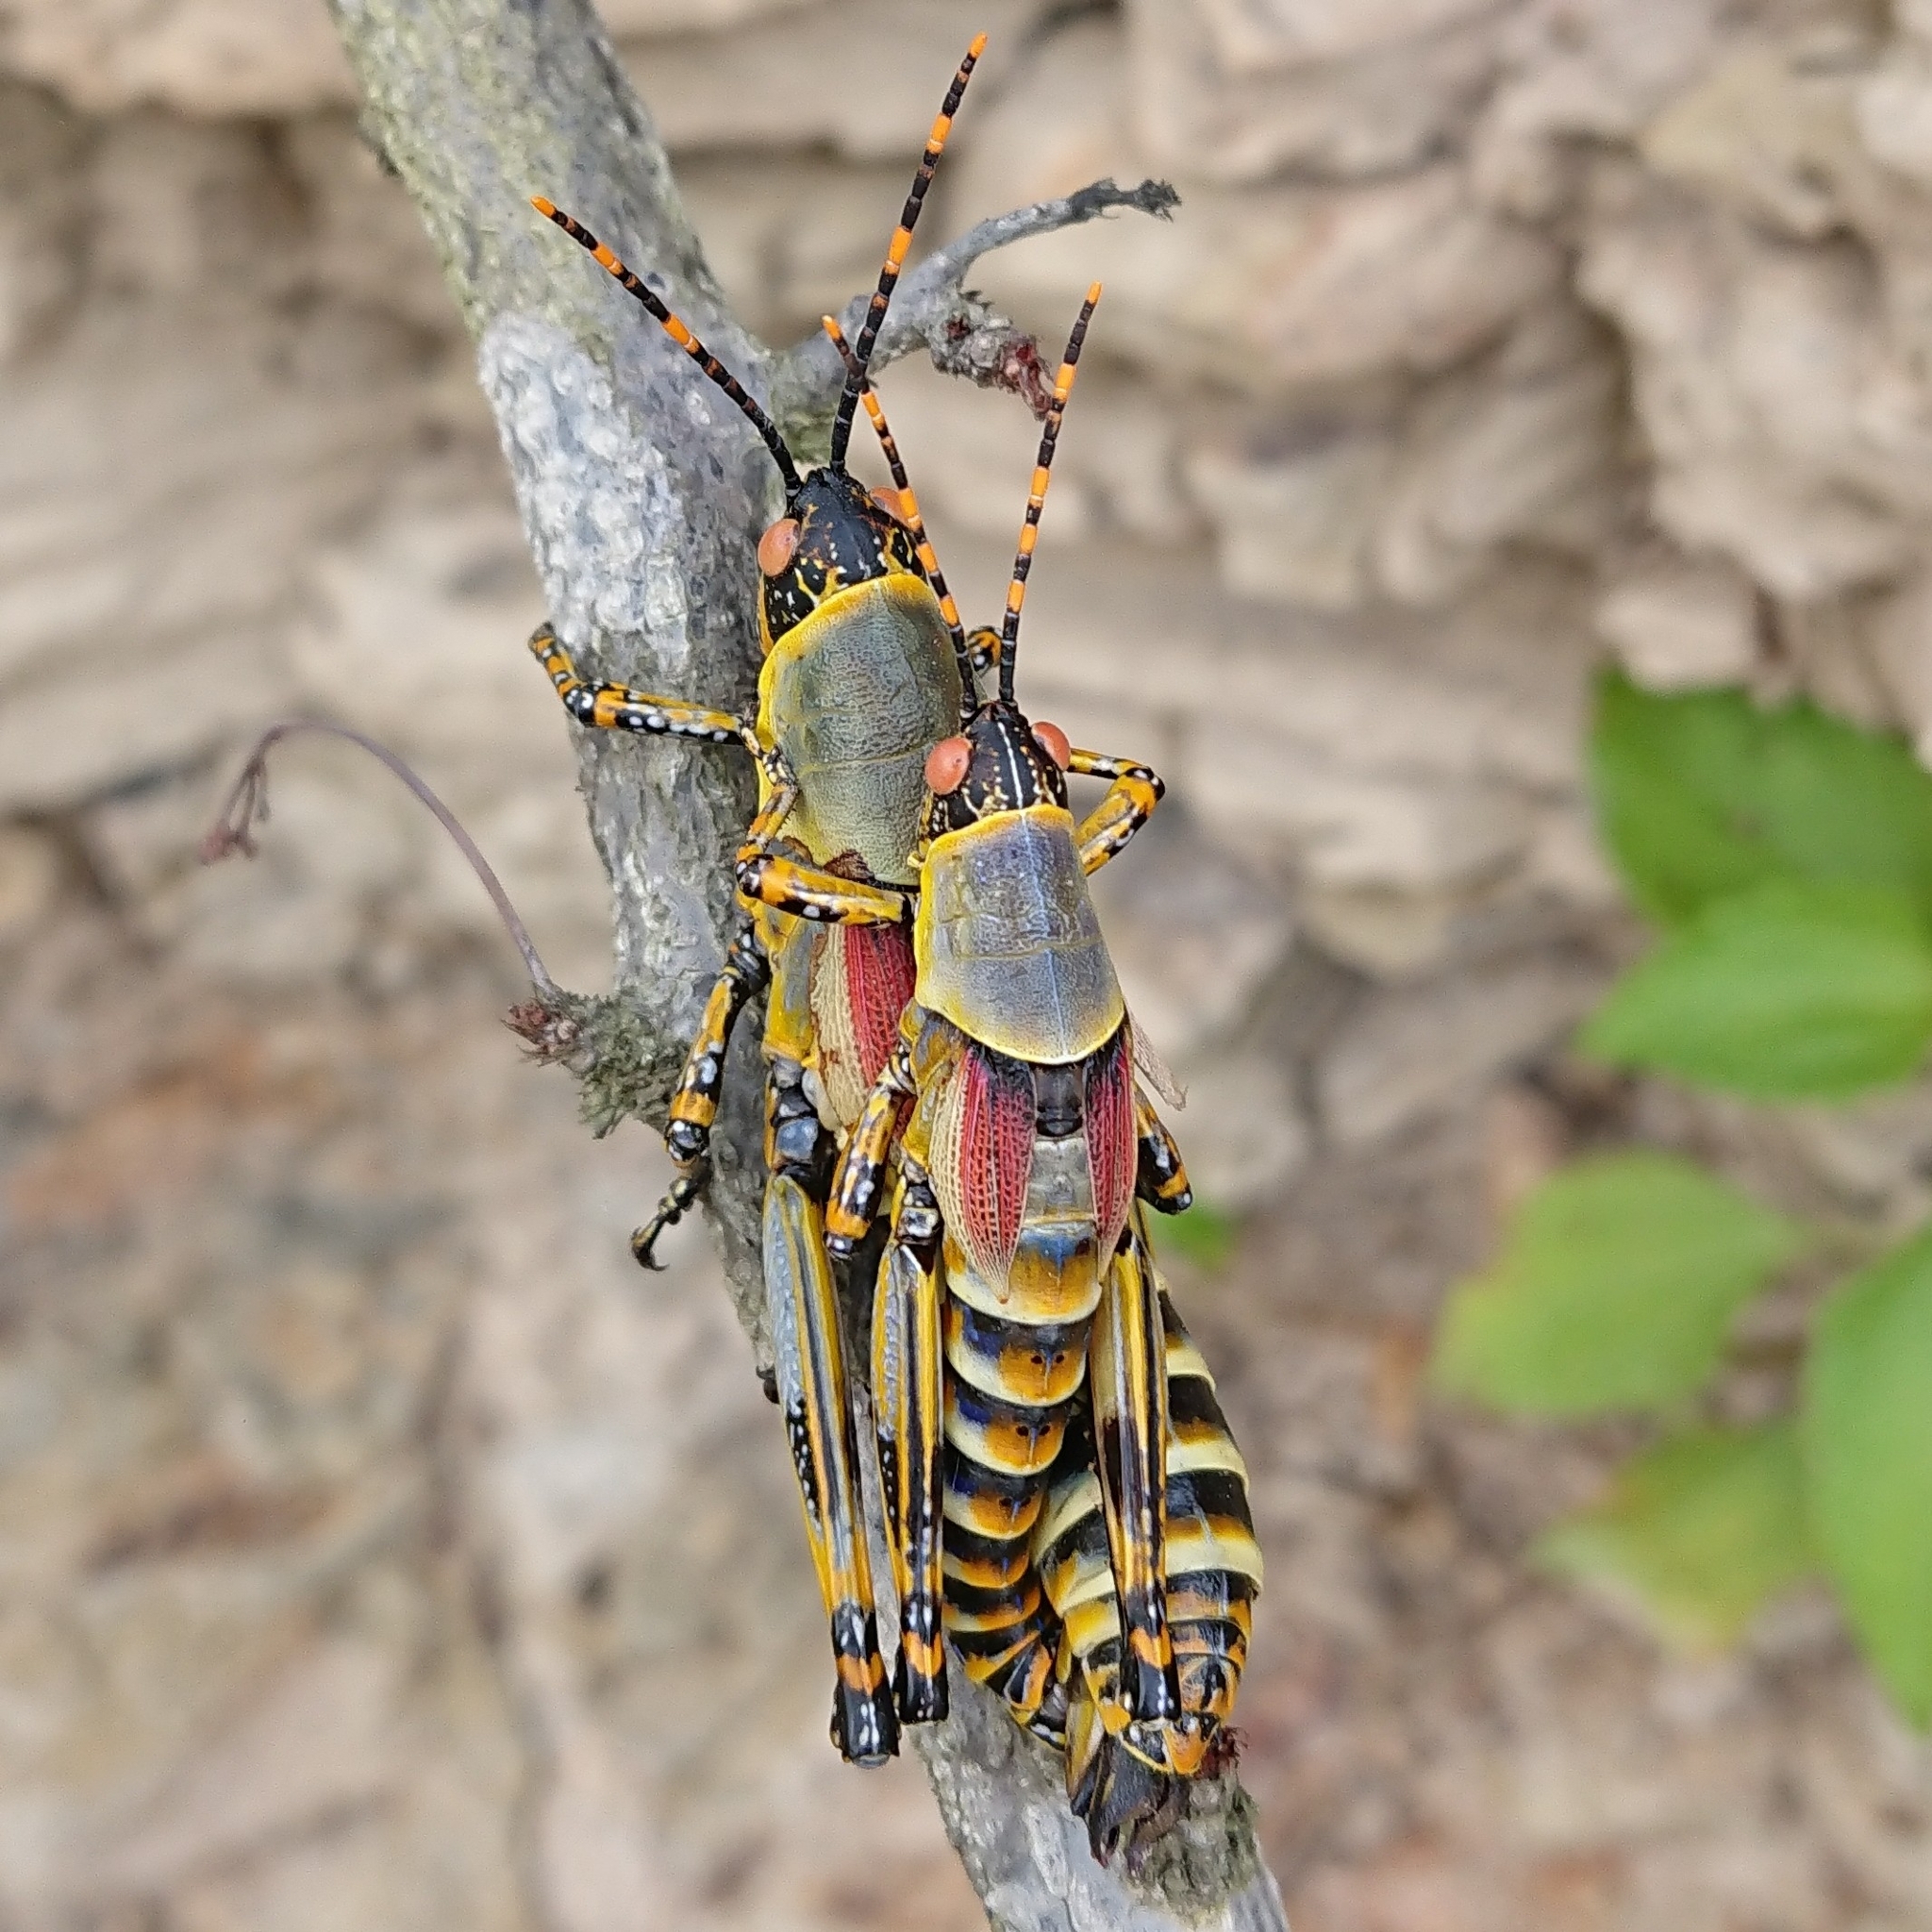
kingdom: Animalia
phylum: Arthropoda
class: Insecta
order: Orthoptera
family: Pyrgomorphidae
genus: Zonocerus
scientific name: Zonocerus elegans
